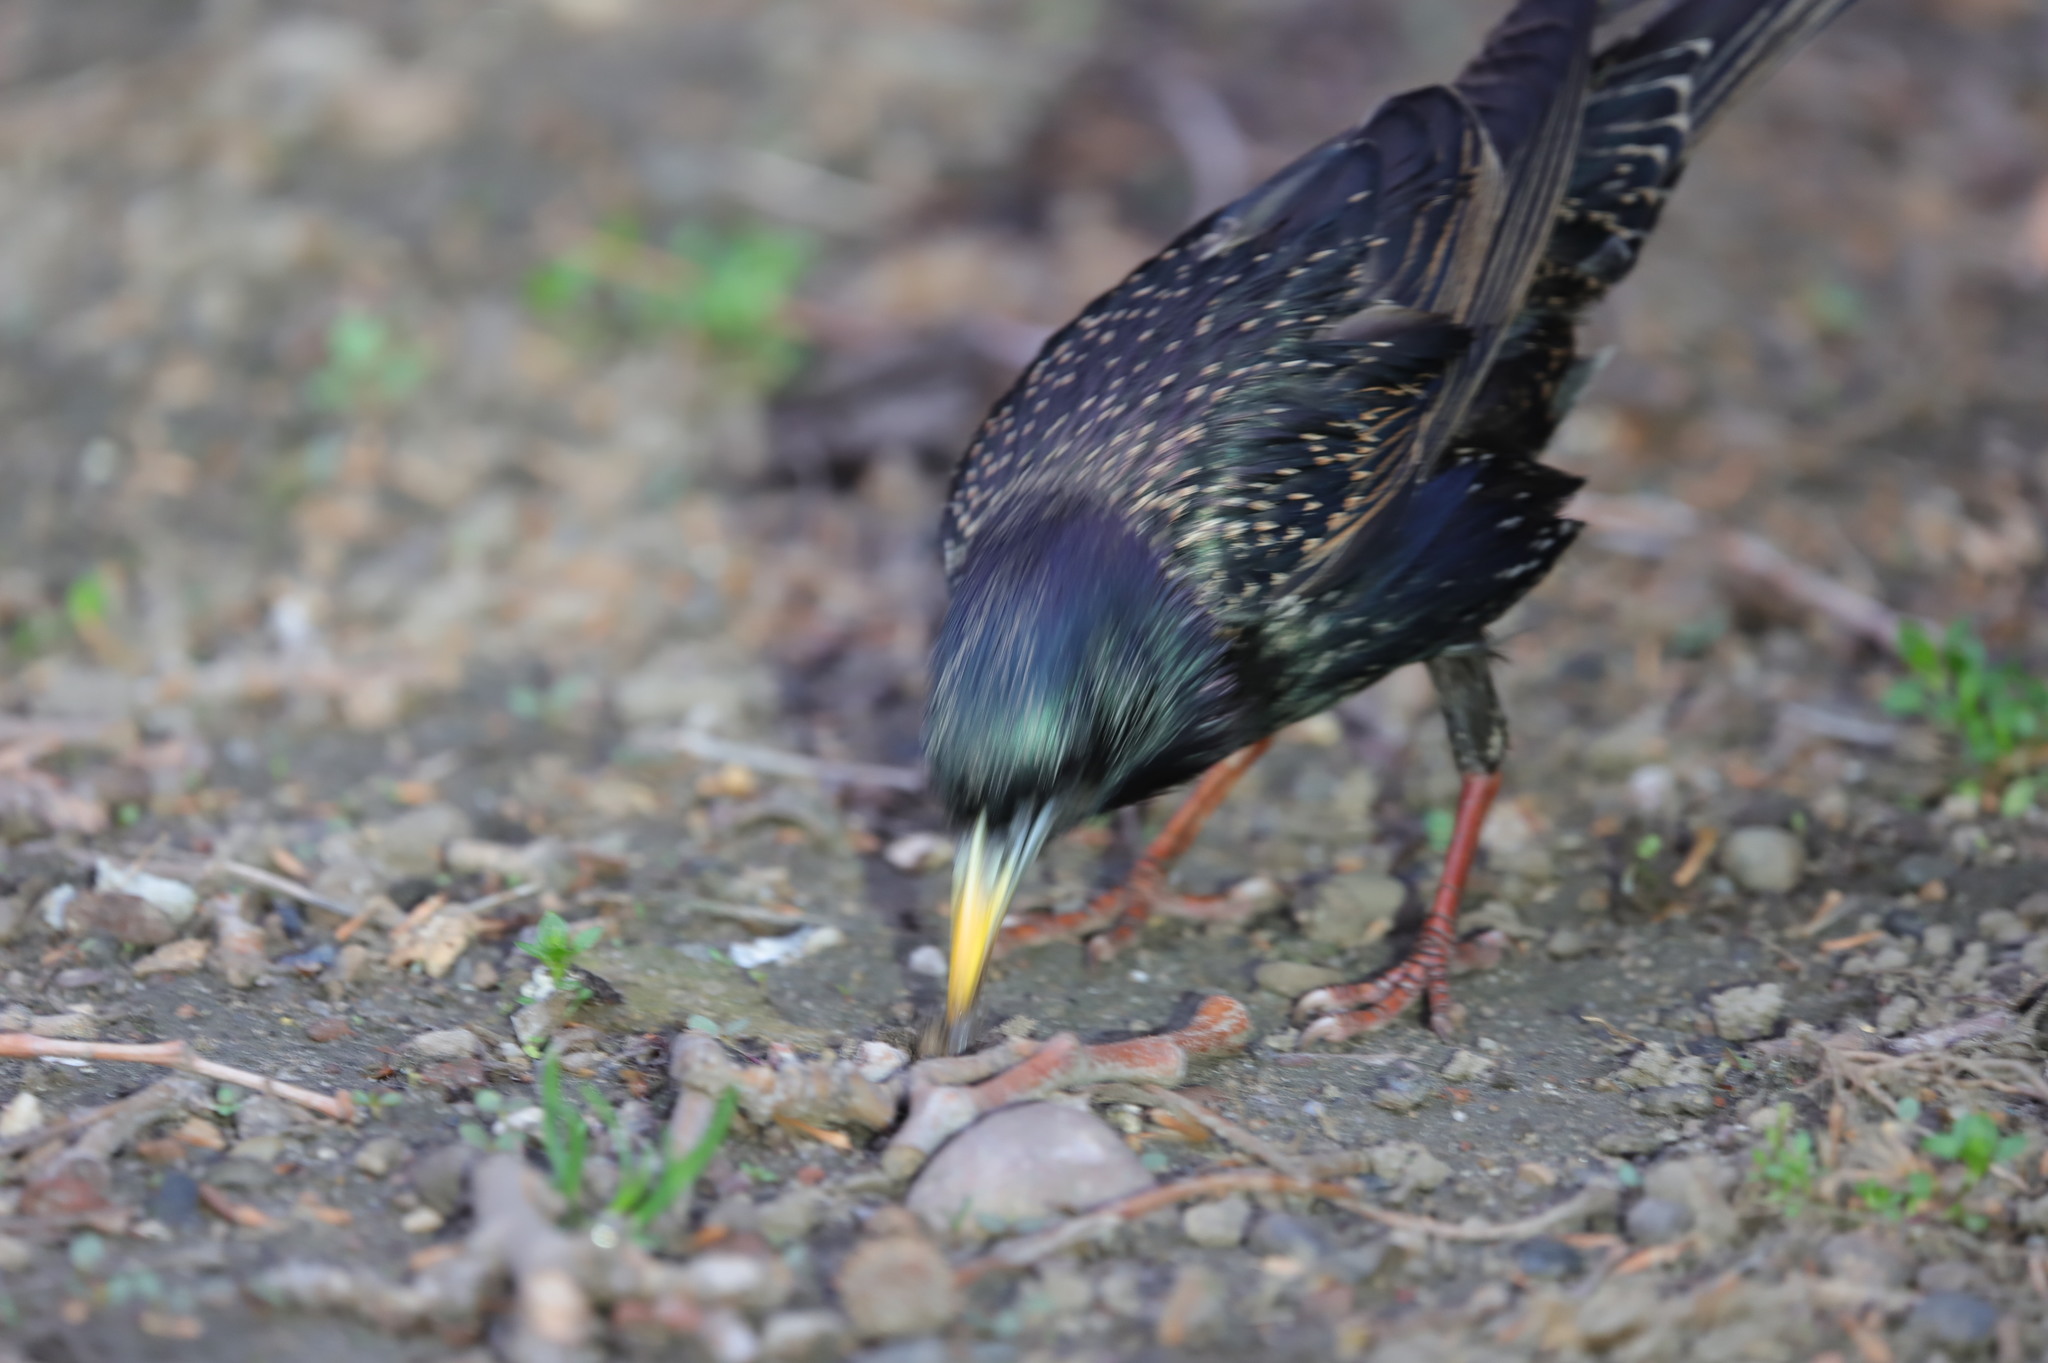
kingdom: Animalia
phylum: Chordata
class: Aves
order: Passeriformes
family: Sturnidae
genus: Sturnus
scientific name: Sturnus vulgaris
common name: Common starling
